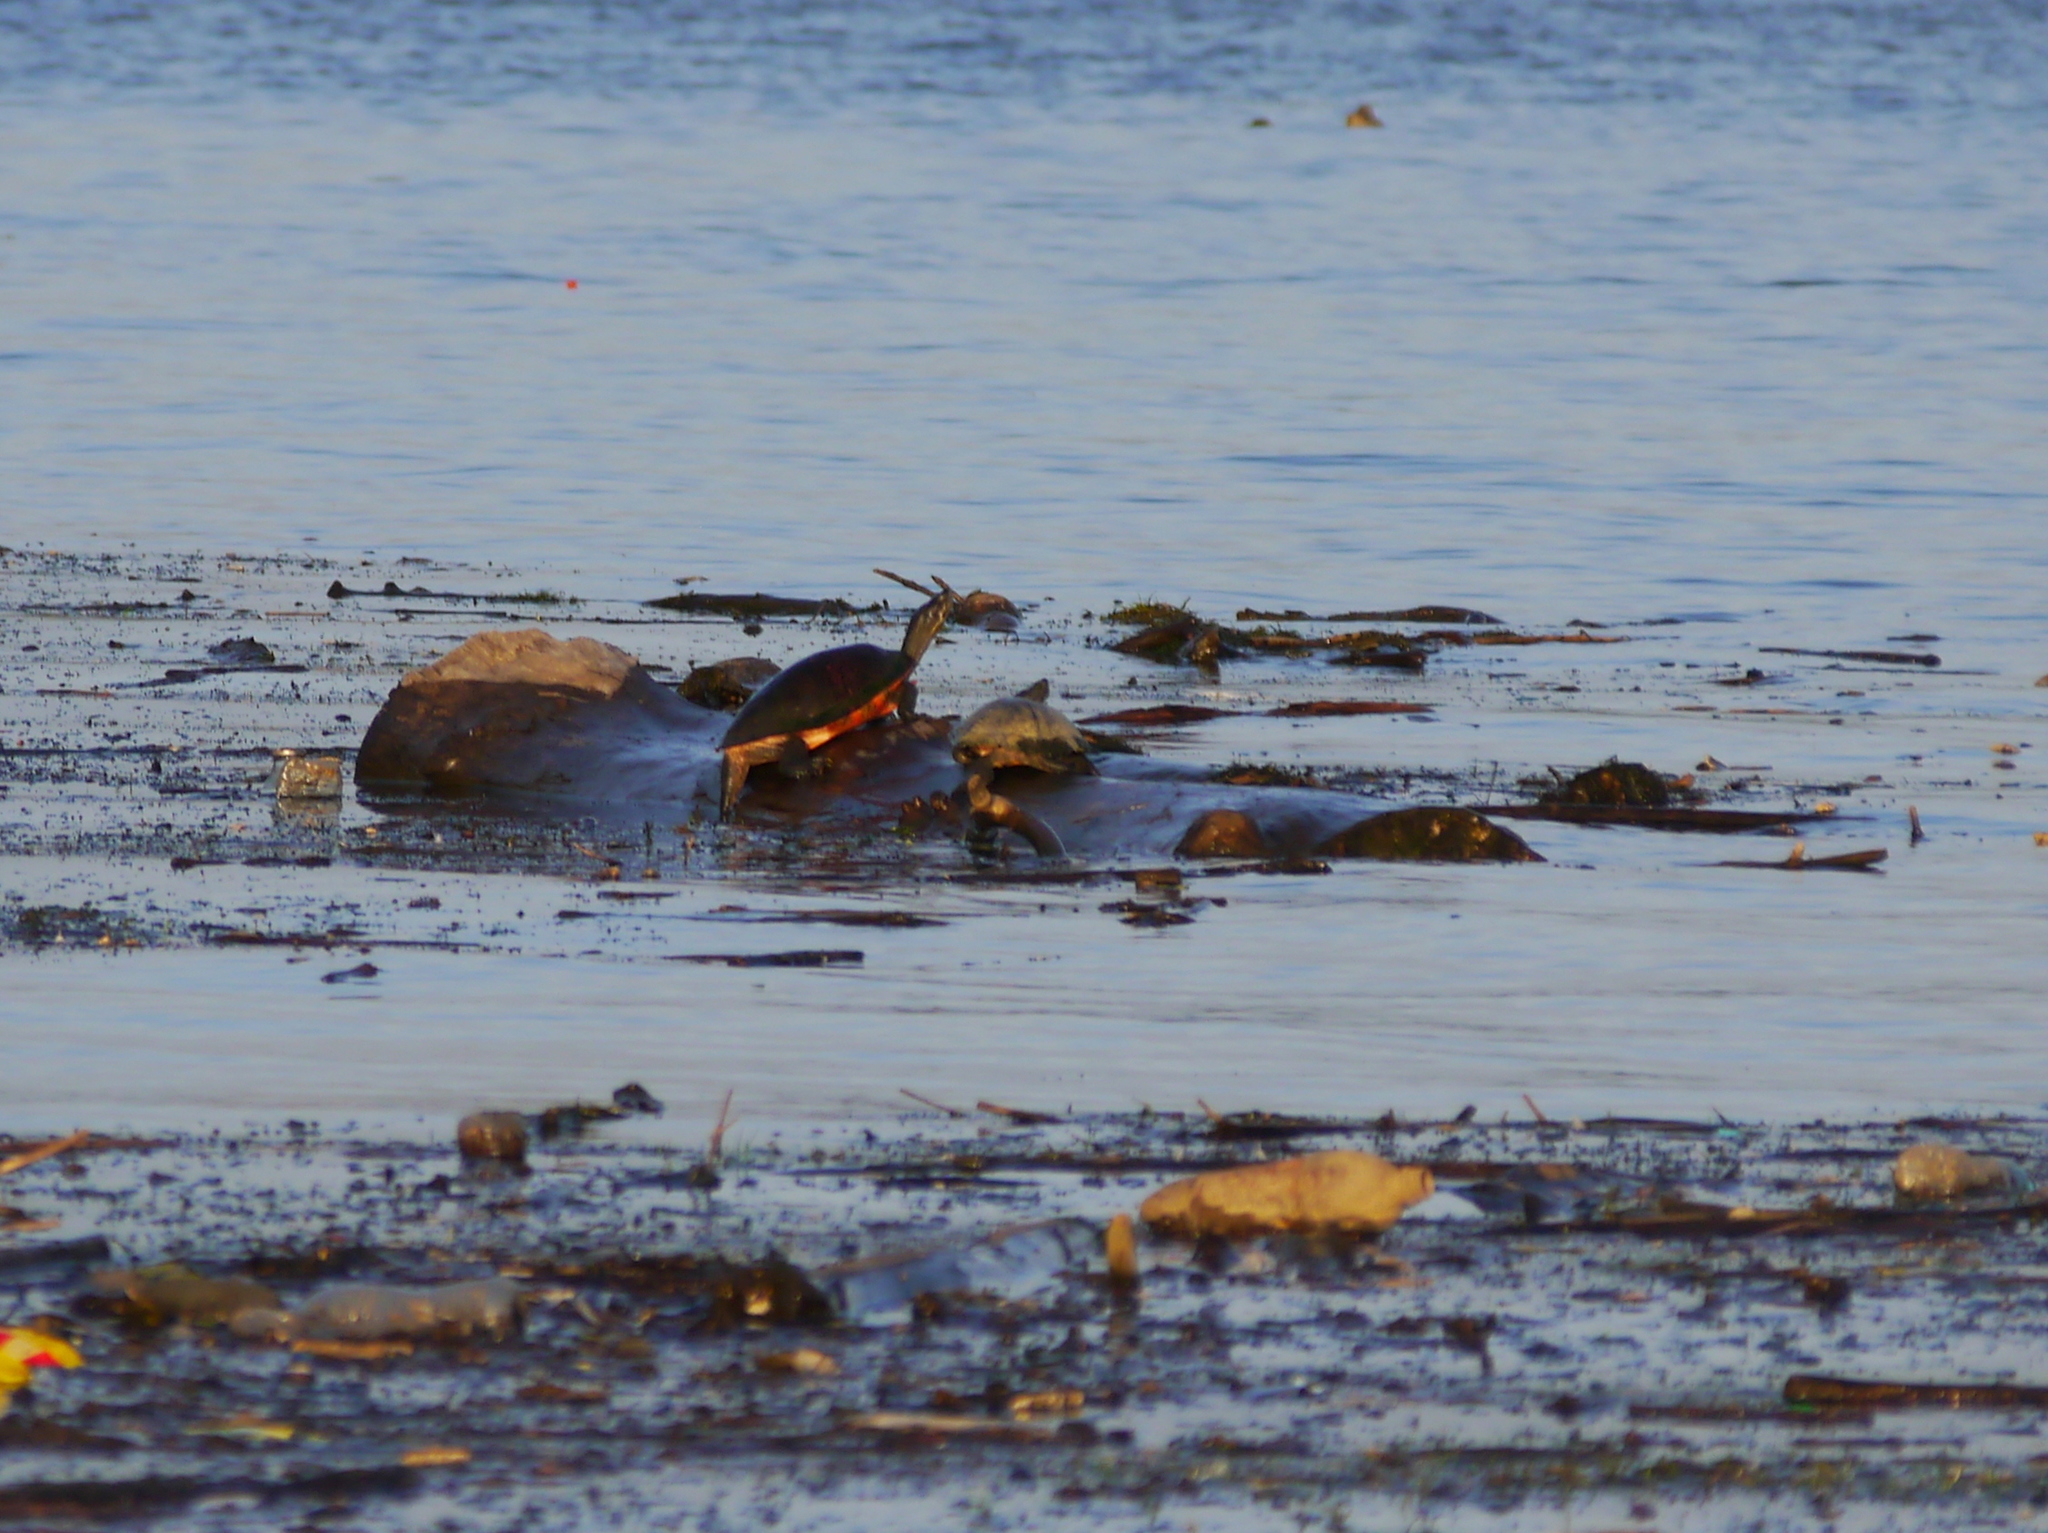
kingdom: Animalia
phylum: Chordata
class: Testudines
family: Emydidae
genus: Pseudemys
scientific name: Pseudemys rubriventris
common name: American red-bellied turtle
